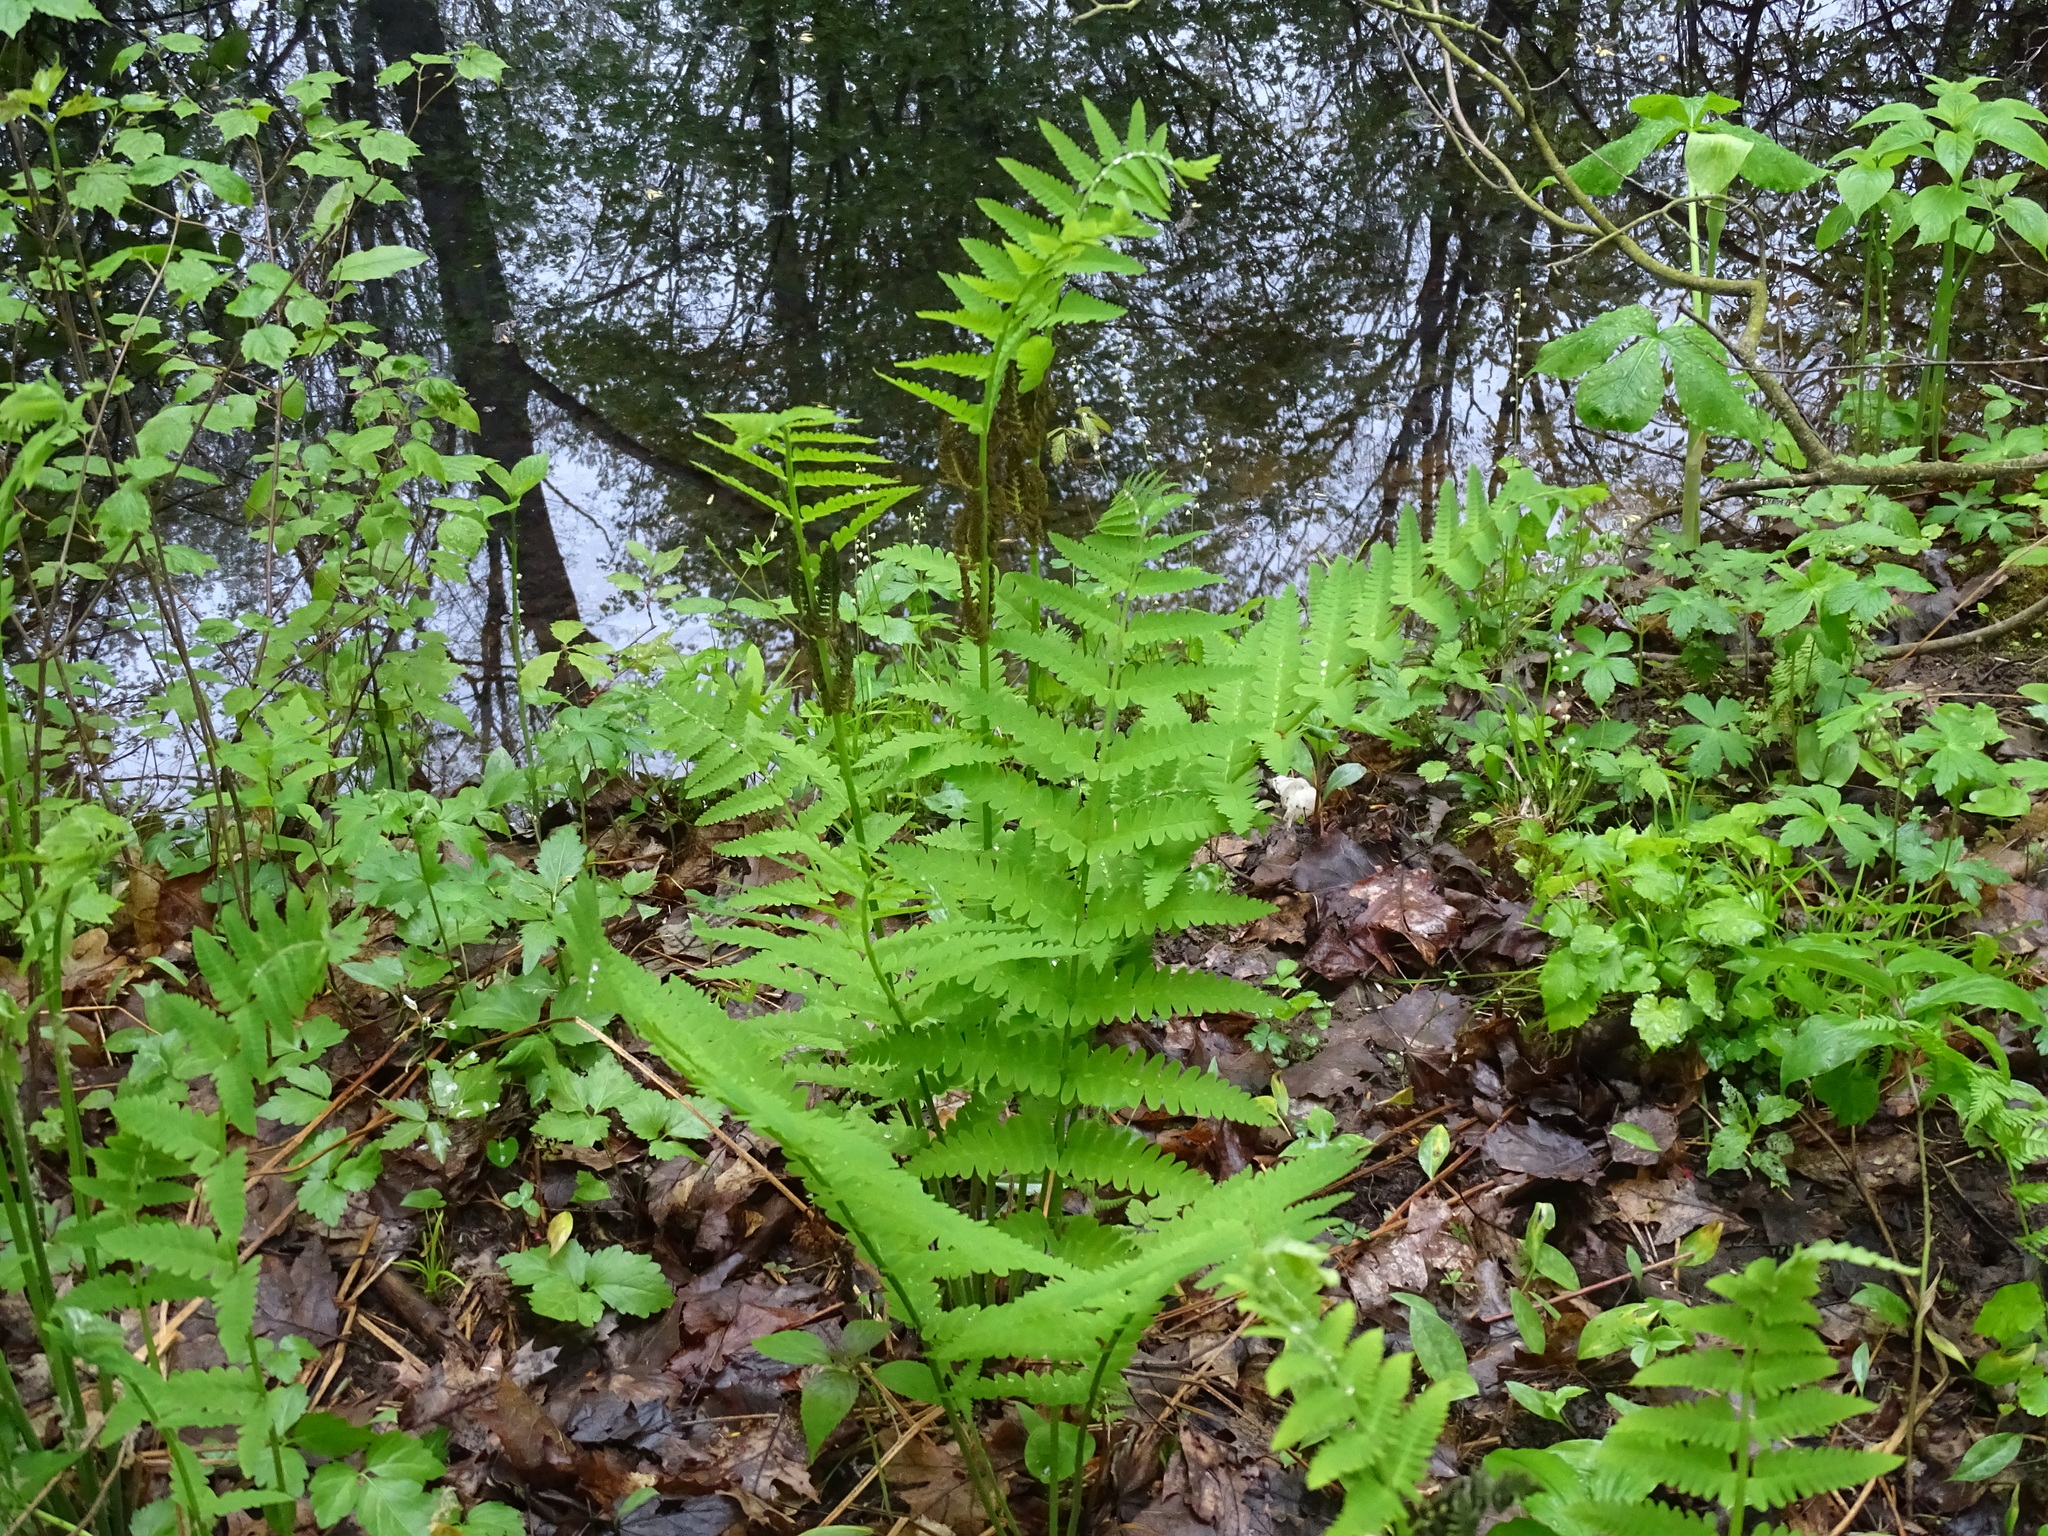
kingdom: Plantae
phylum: Tracheophyta
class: Polypodiopsida
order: Osmundales
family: Osmundaceae
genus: Claytosmunda
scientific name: Claytosmunda claytoniana
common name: Clayton's fern
